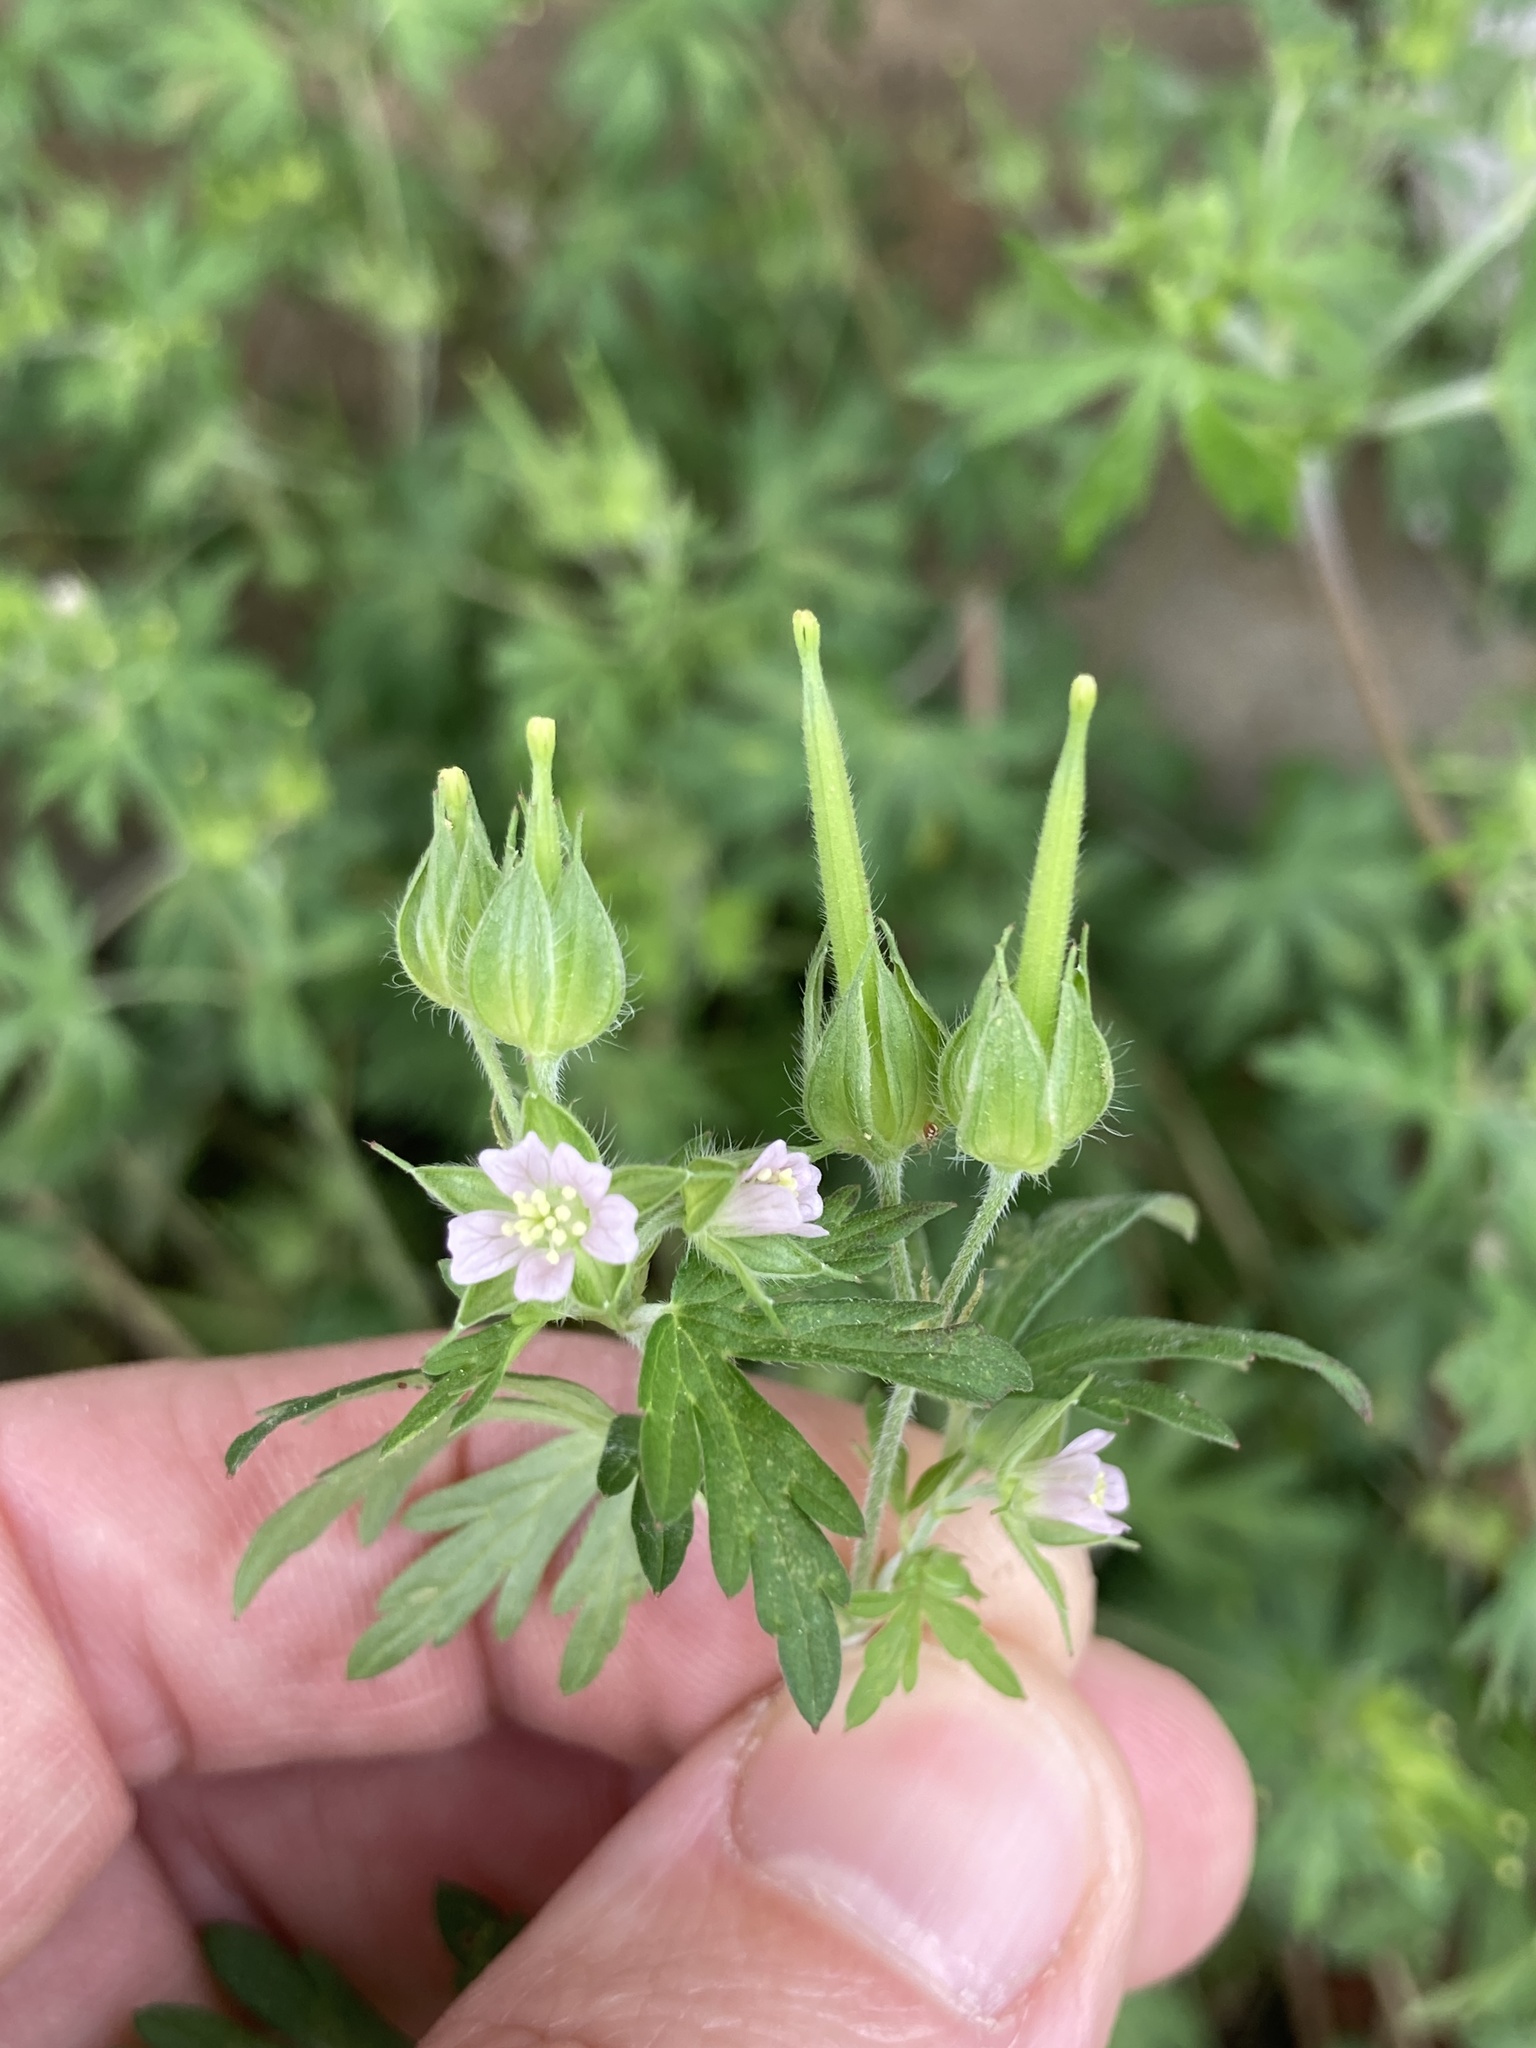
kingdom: Plantae
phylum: Tracheophyta
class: Magnoliopsida
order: Geraniales
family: Geraniaceae
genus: Geranium
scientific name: Geranium carolinianum
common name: Carolina crane's-bill
